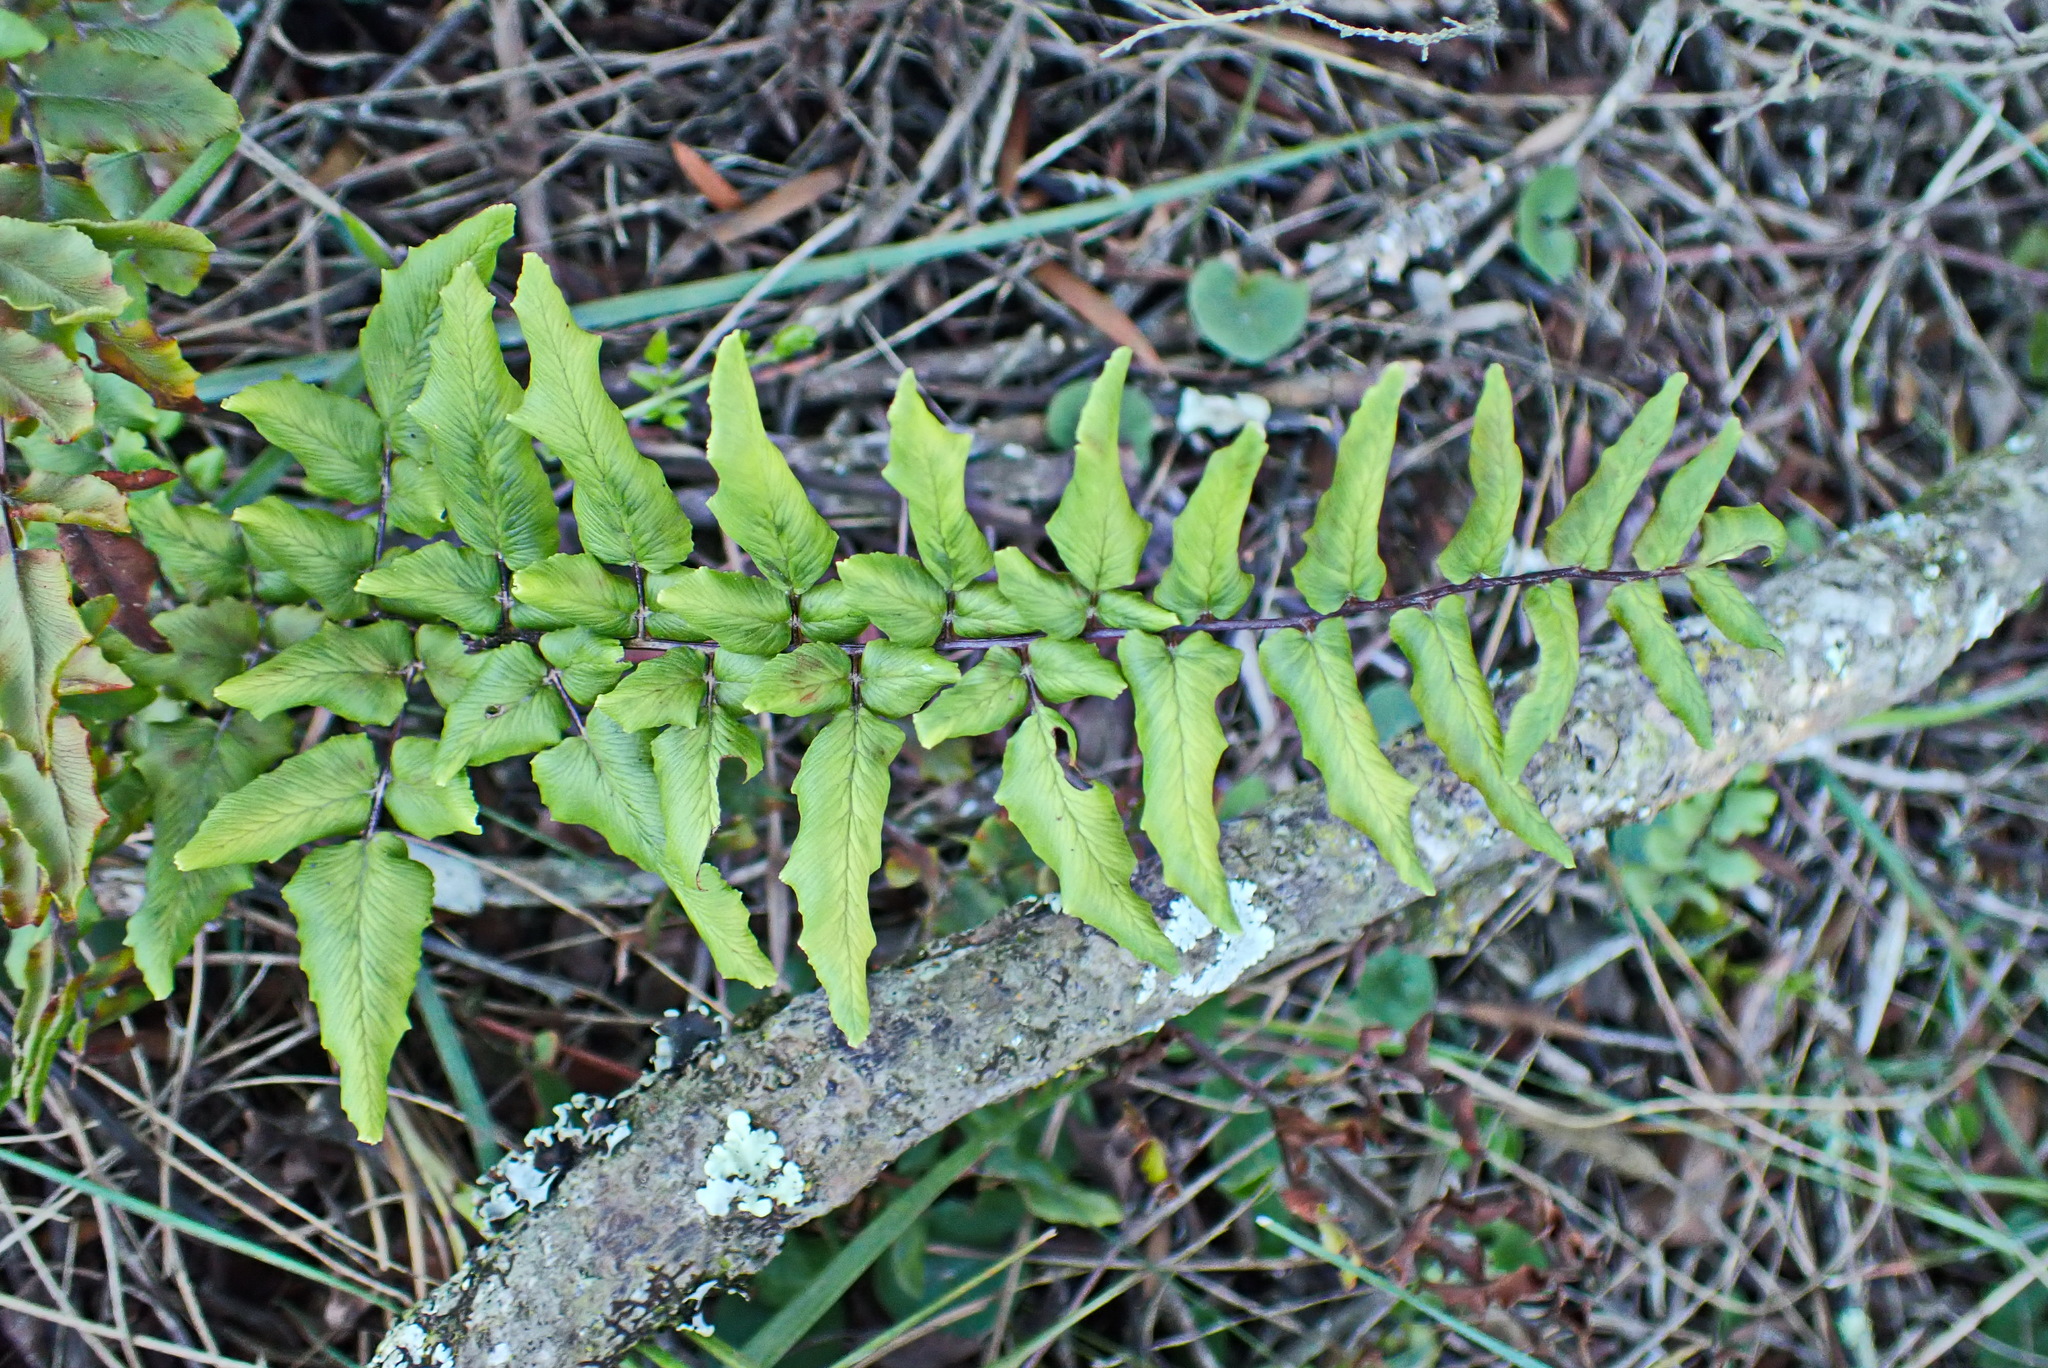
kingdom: Plantae
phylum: Tracheophyta
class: Polypodiopsida
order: Polypodiales
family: Pteridaceae
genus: Cheilanthes
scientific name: Cheilanthes viridis
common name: Green cliffbrake
